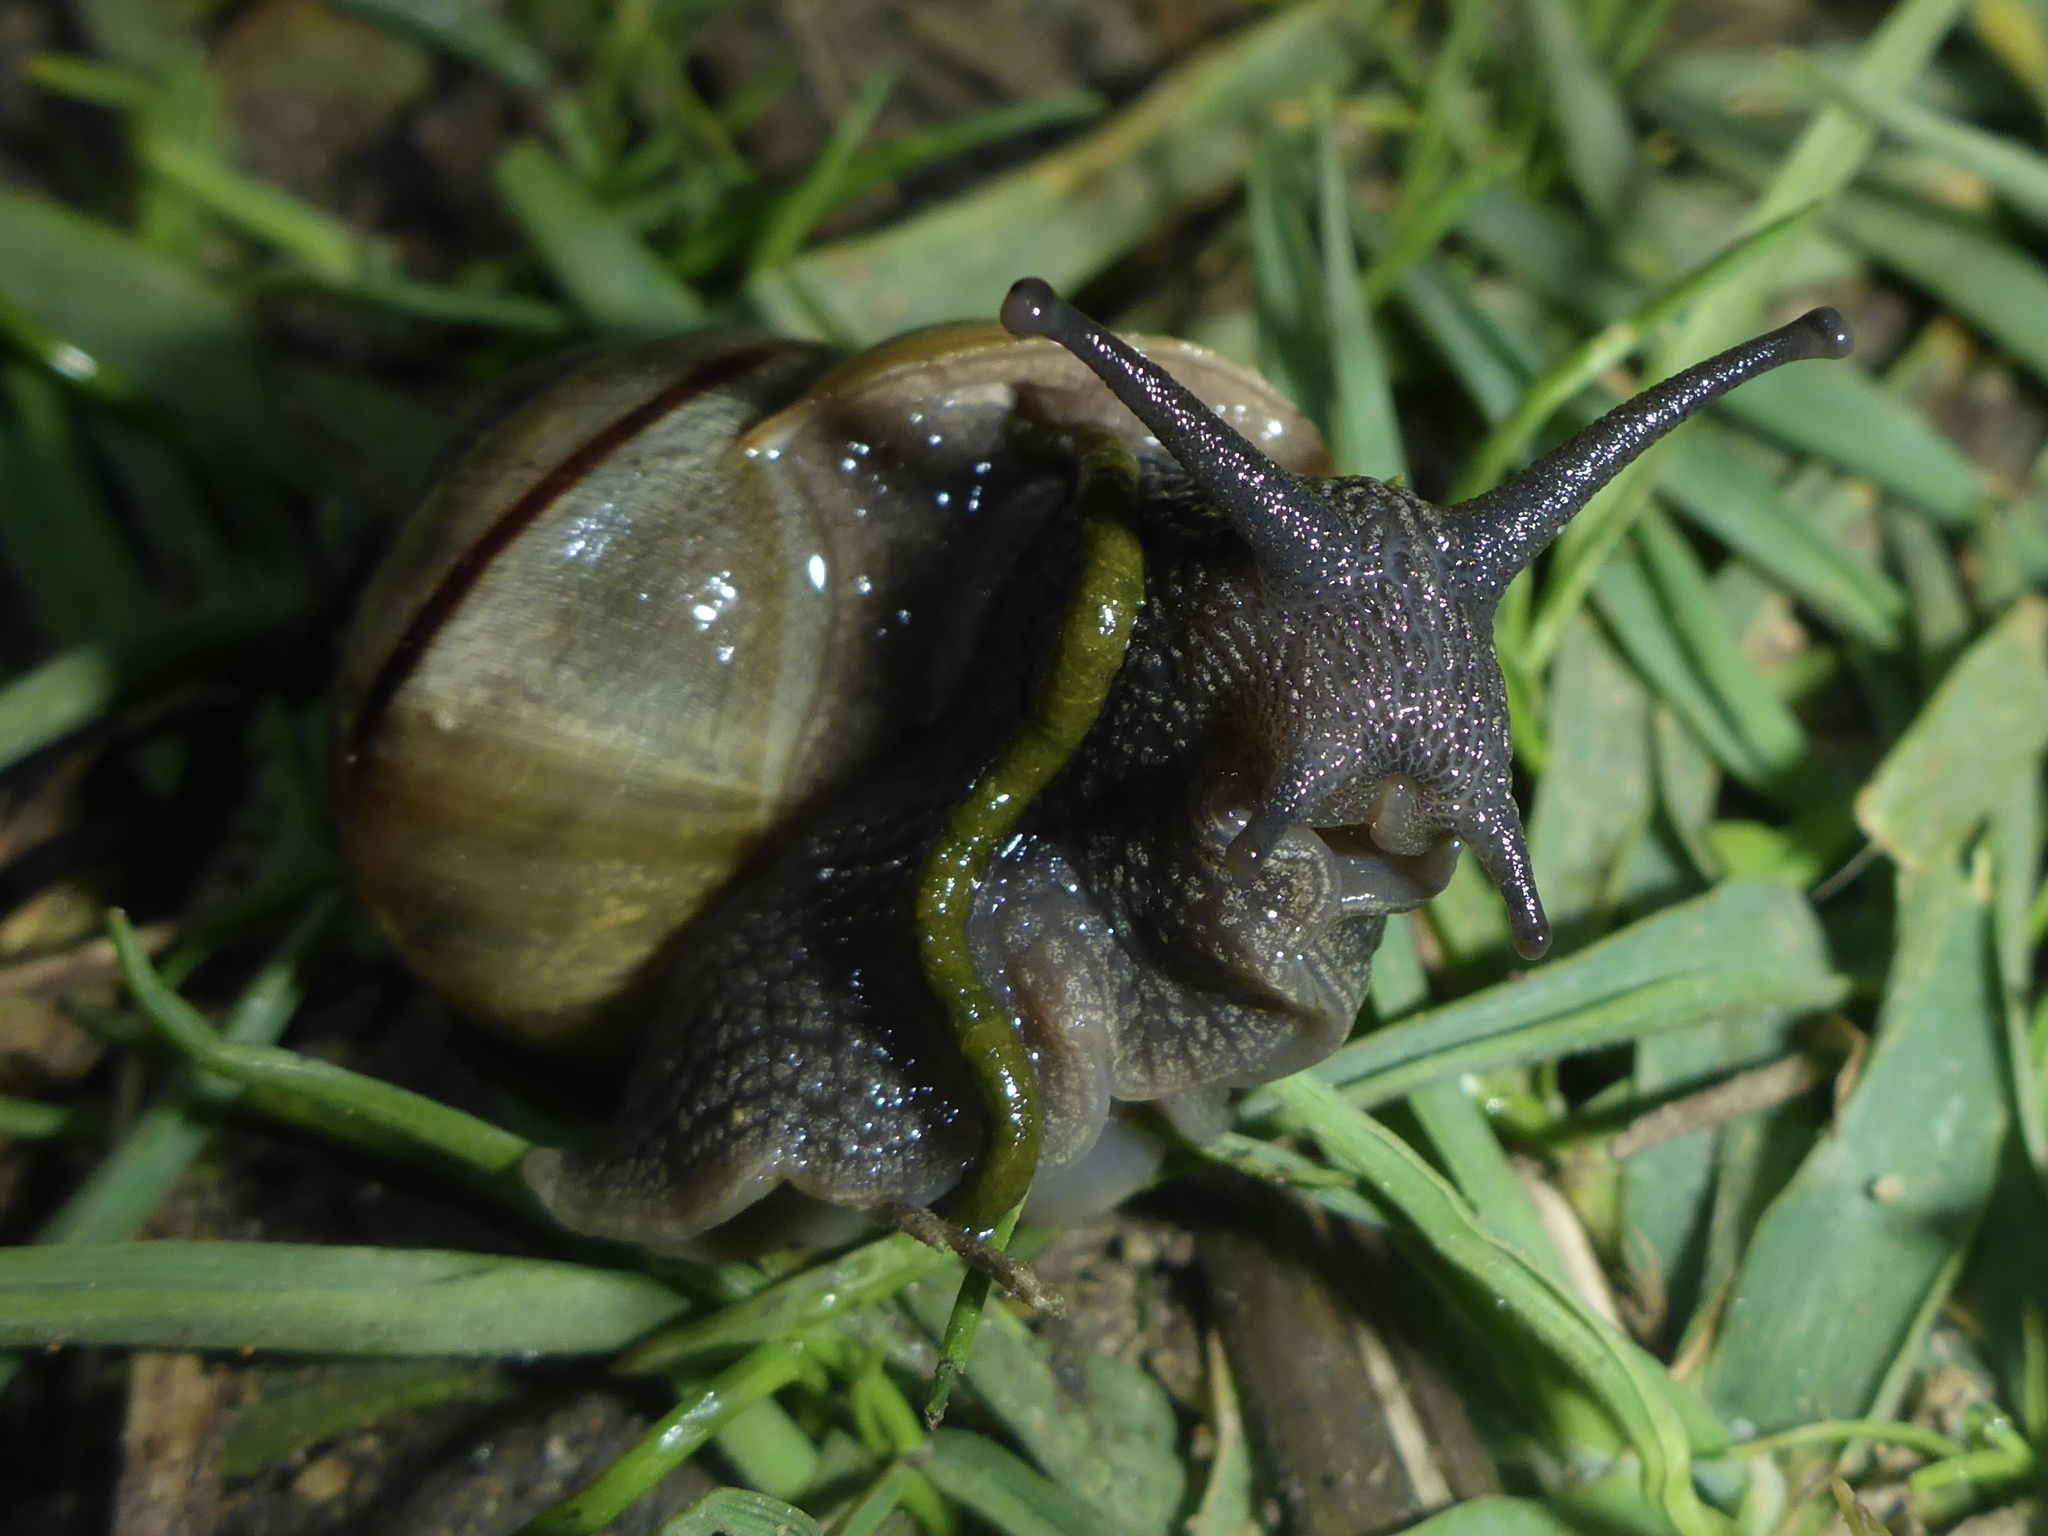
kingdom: Animalia
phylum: Mollusca
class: Gastropoda
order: Stylommatophora
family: Xanthonychidae
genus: Helminthoglypta
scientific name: Helminthoglypta nickliniana
